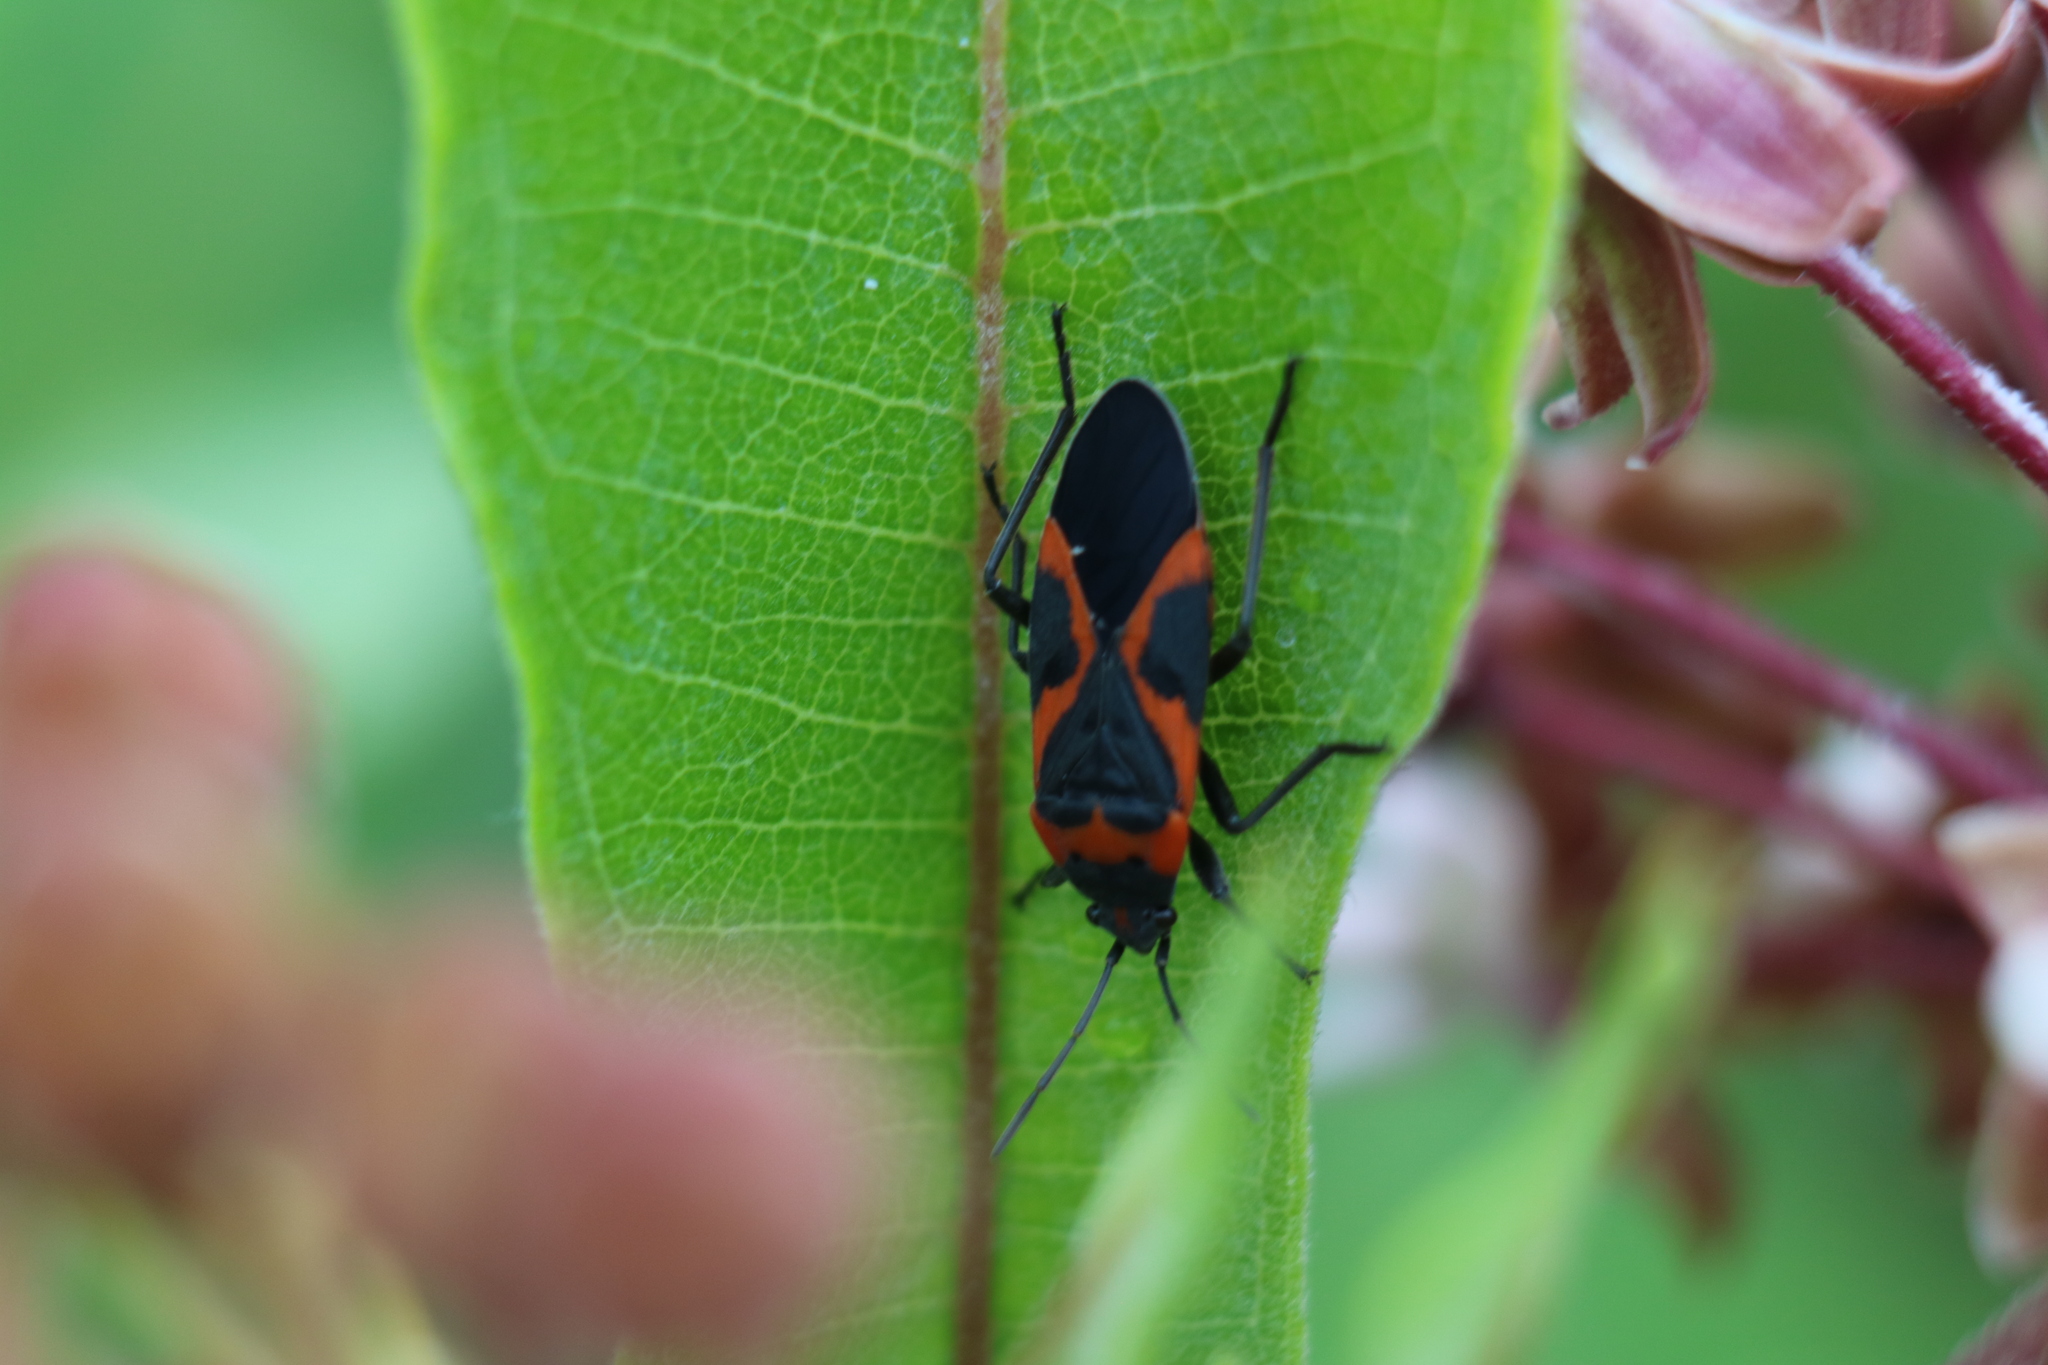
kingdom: Animalia
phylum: Arthropoda
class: Insecta
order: Hemiptera
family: Lygaeidae
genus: Lygaeus
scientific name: Lygaeus kalmii
